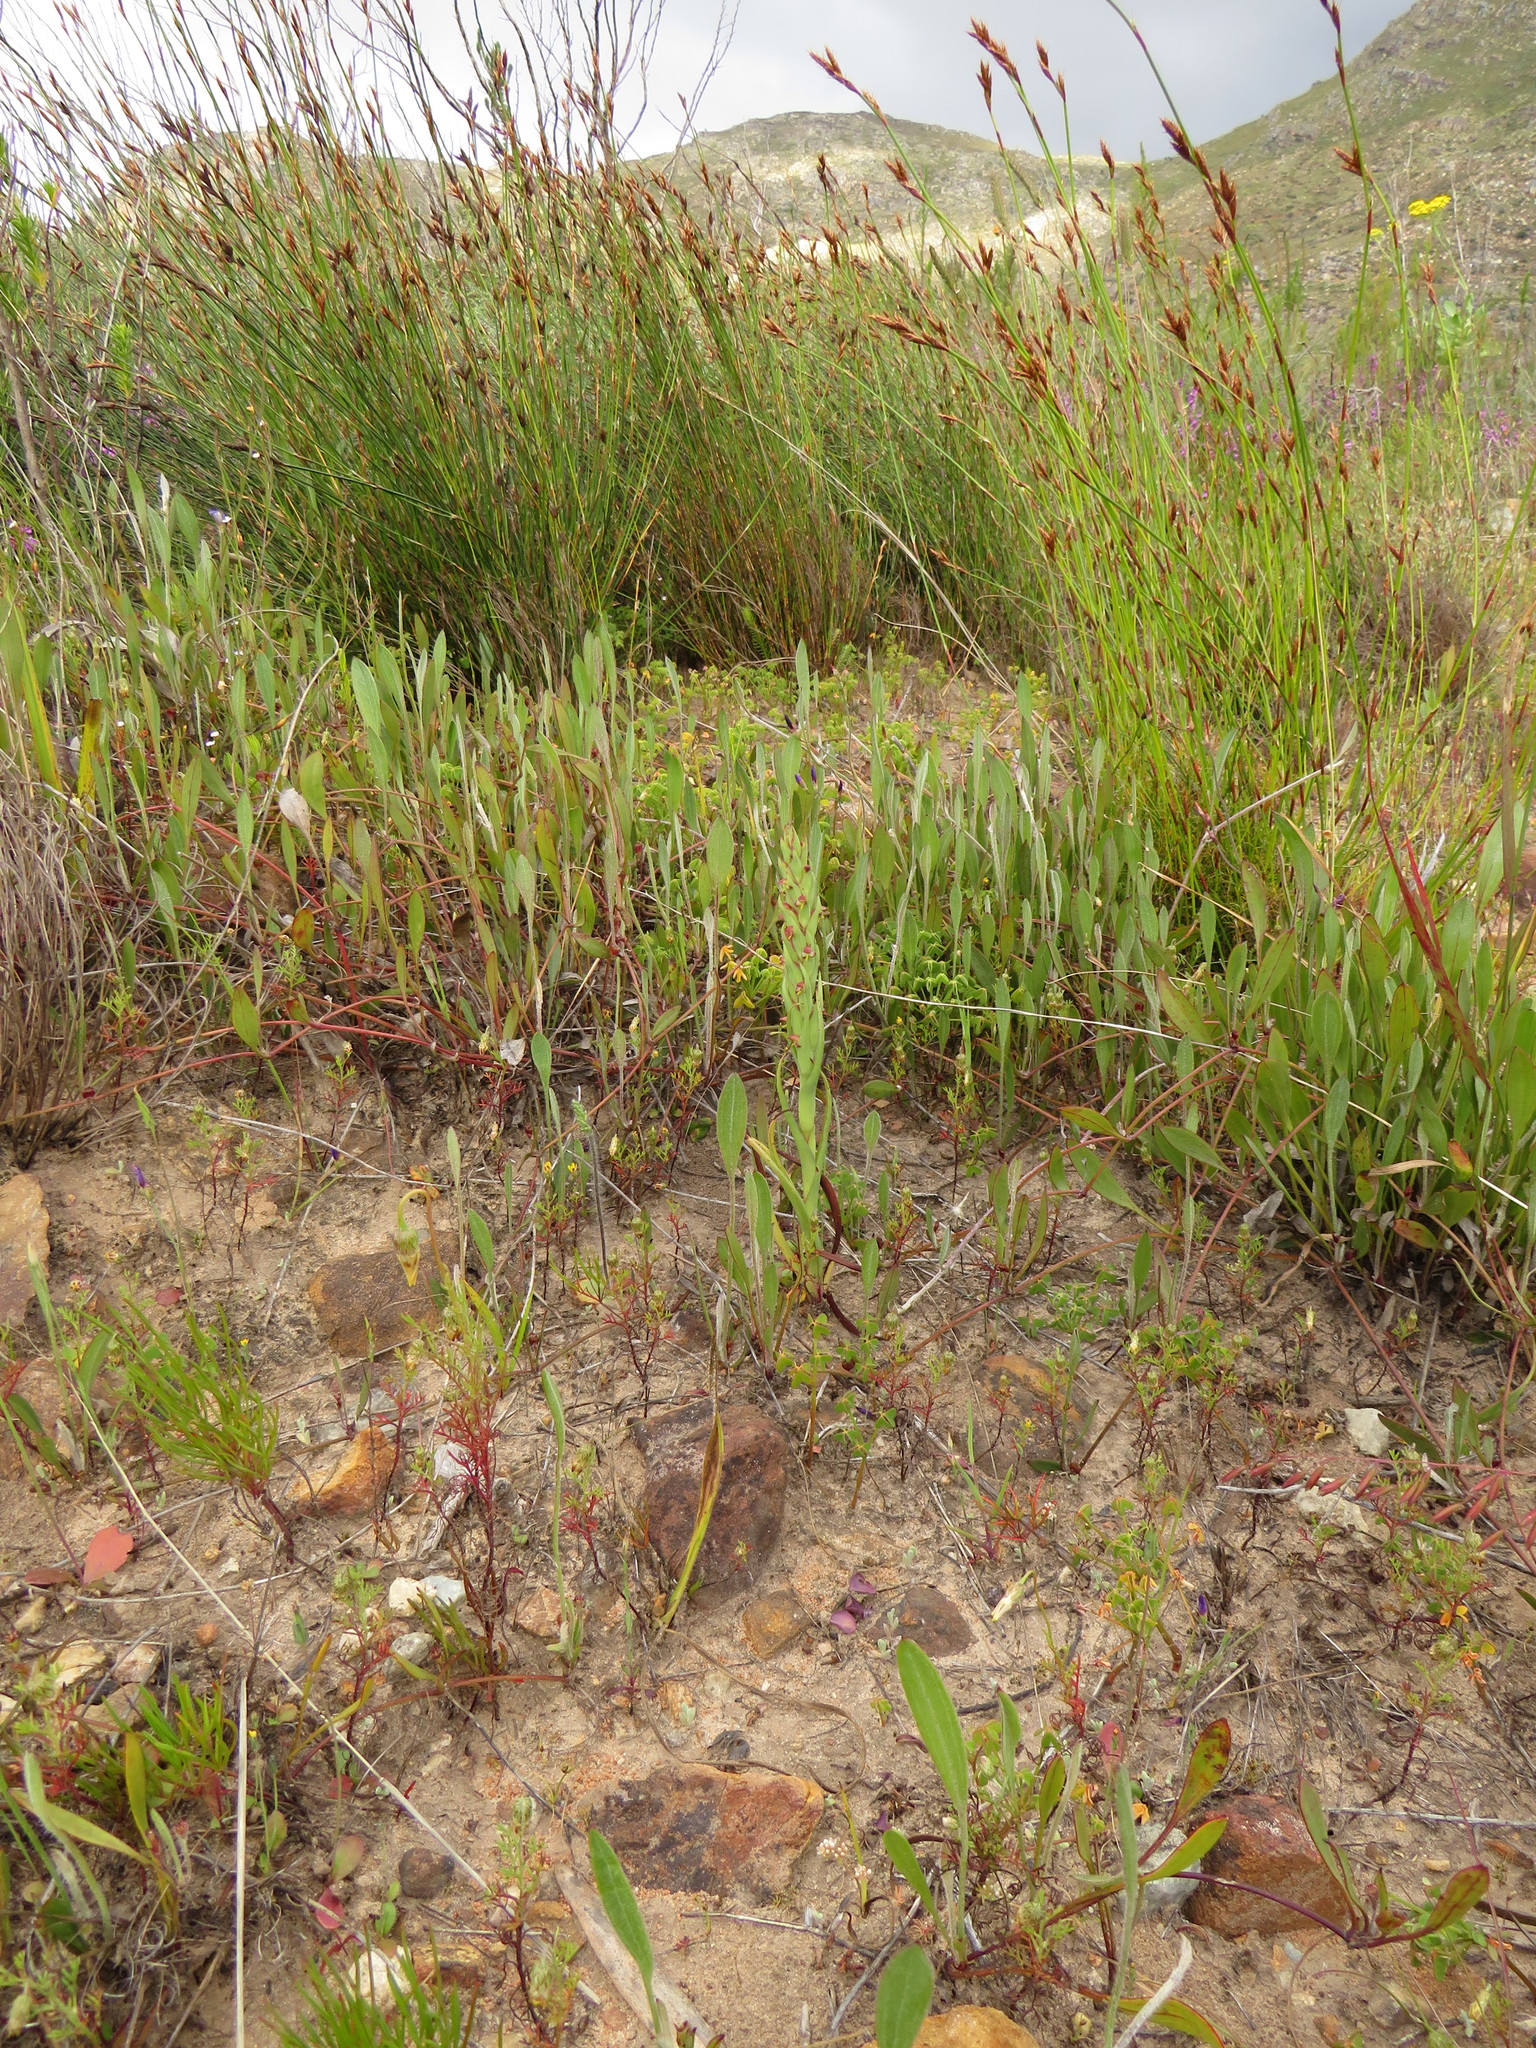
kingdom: Plantae
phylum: Tracheophyta
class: Liliopsida
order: Asparagales
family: Orchidaceae
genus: Disa
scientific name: Disa bracteata
